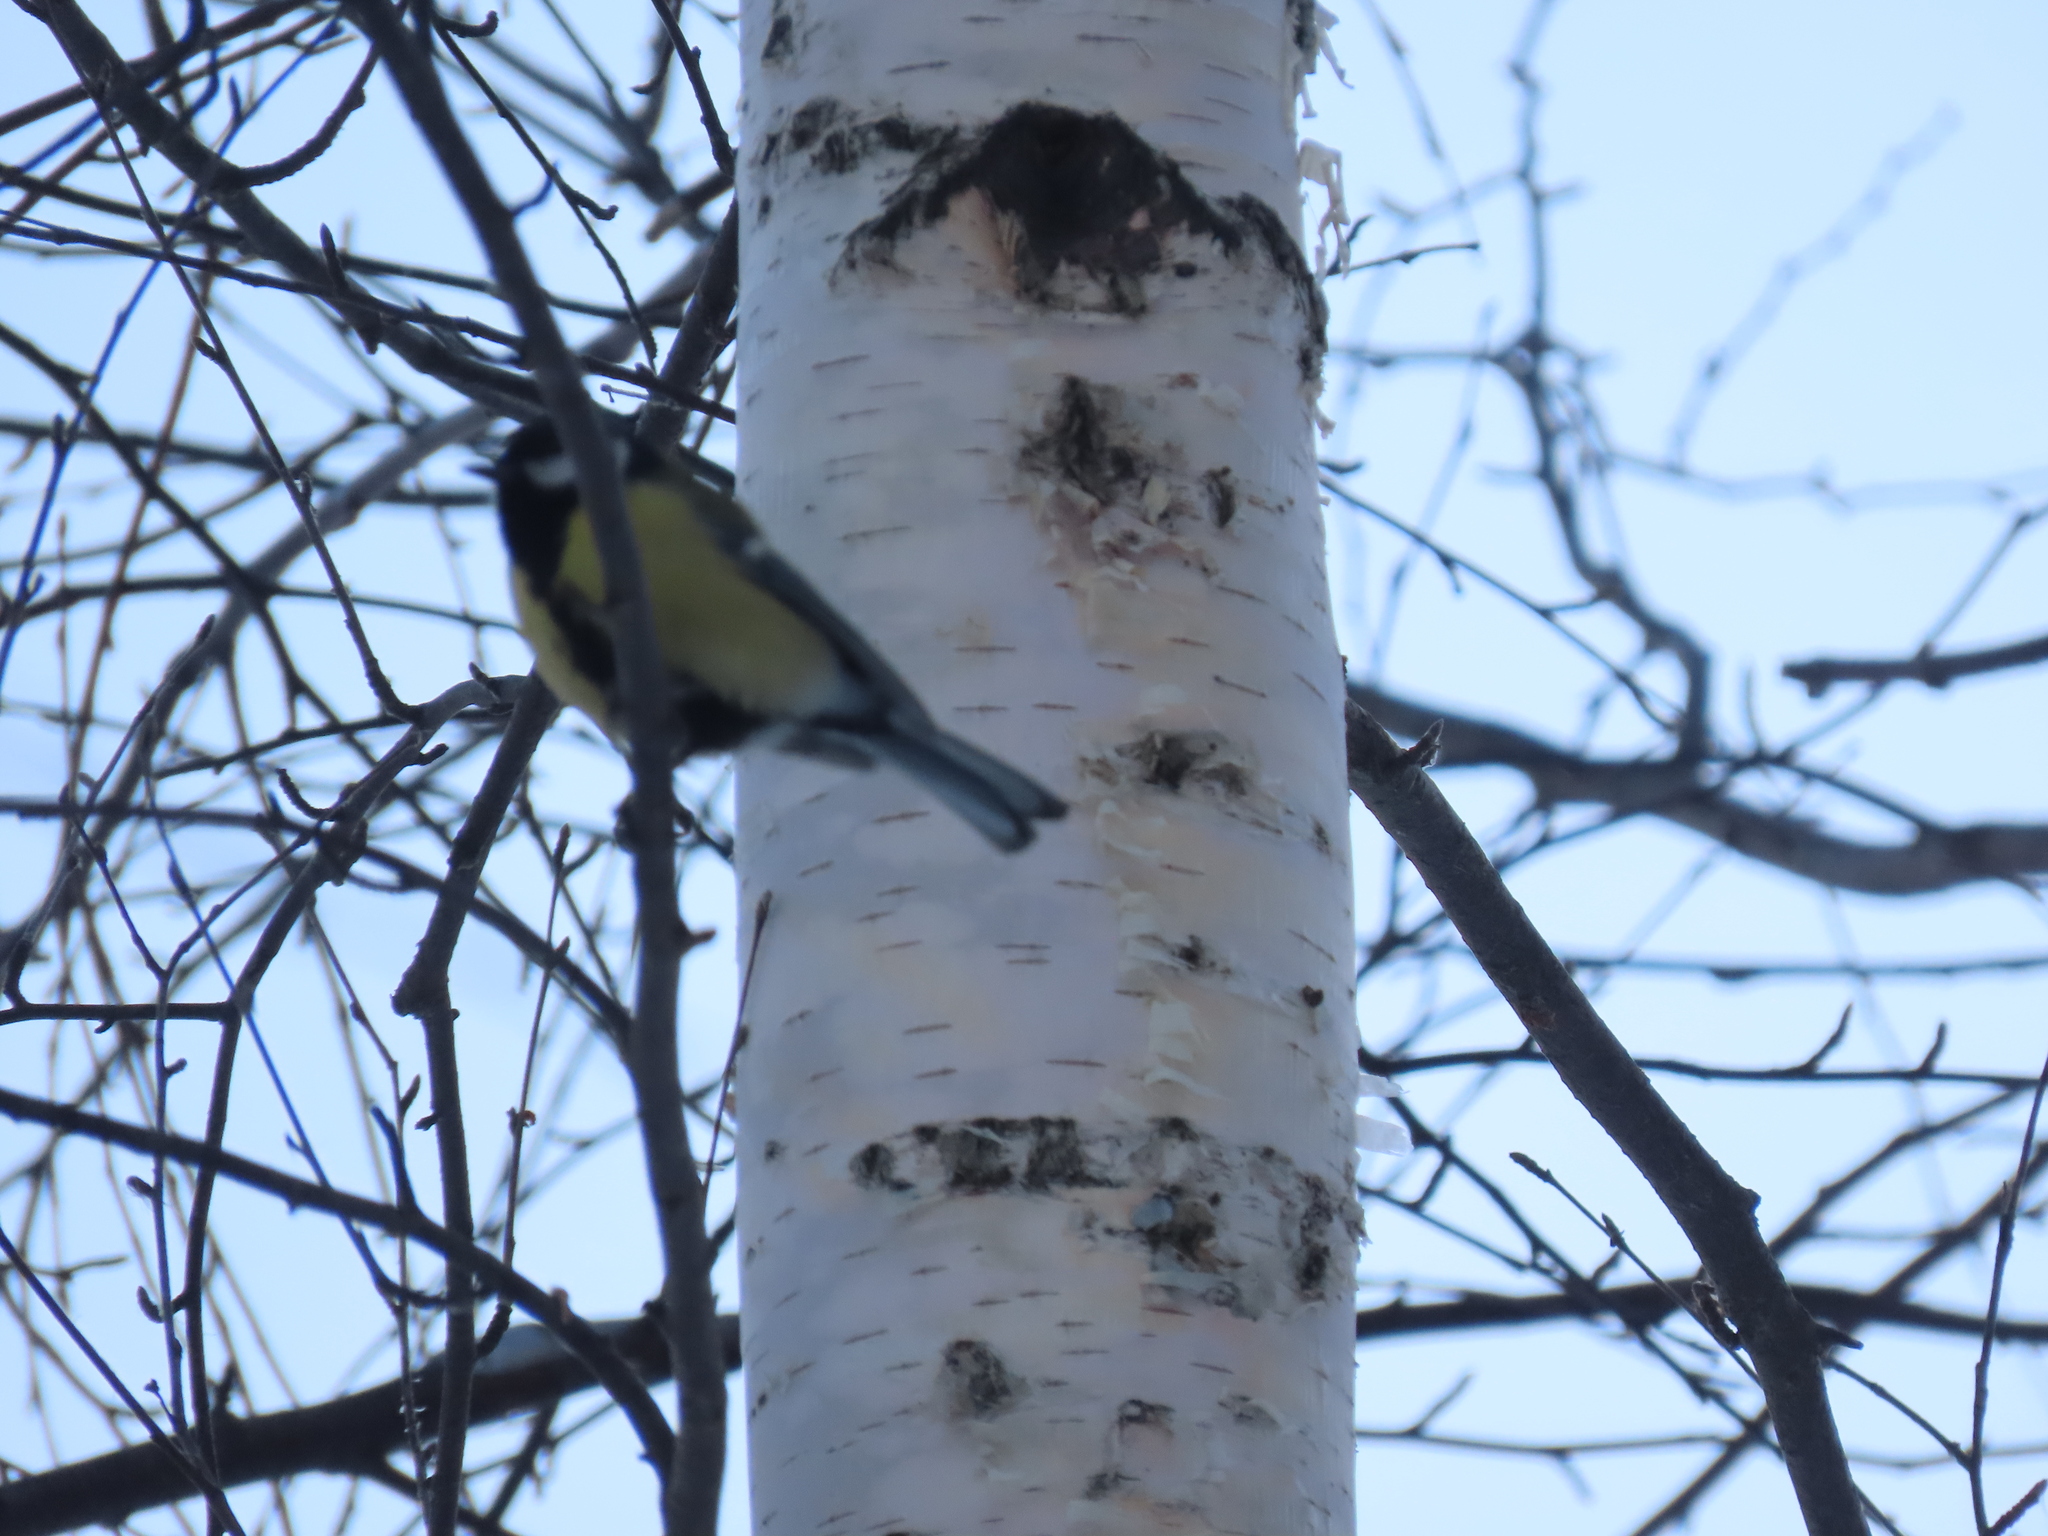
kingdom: Animalia
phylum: Chordata
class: Aves
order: Passeriformes
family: Paridae
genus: Parus
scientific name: Parus major
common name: Great tit
